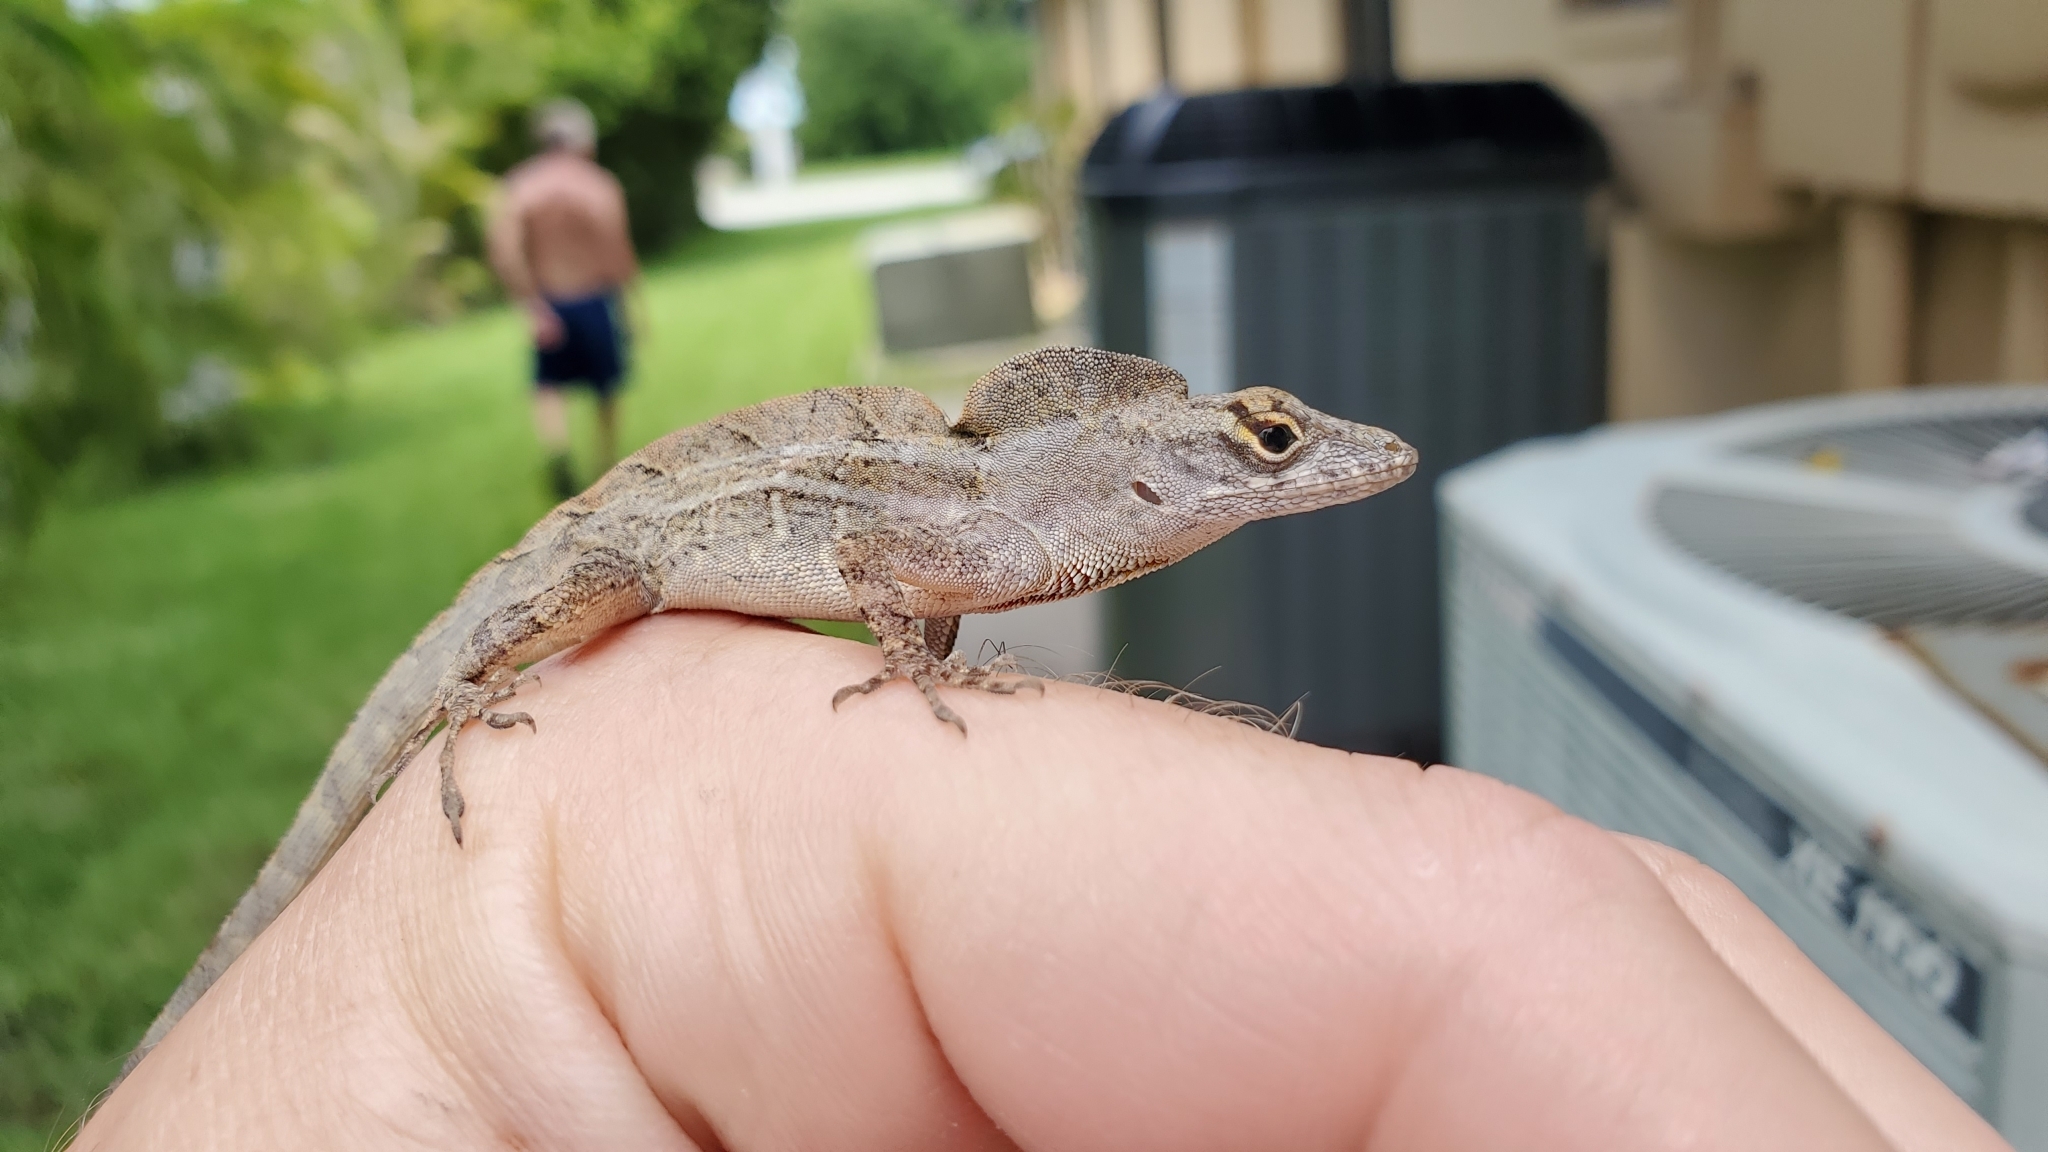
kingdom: Animalia
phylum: Chordata
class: Squamata
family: Dactyloidae
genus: Anolis
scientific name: Anolis sagrei
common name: Brown anole
